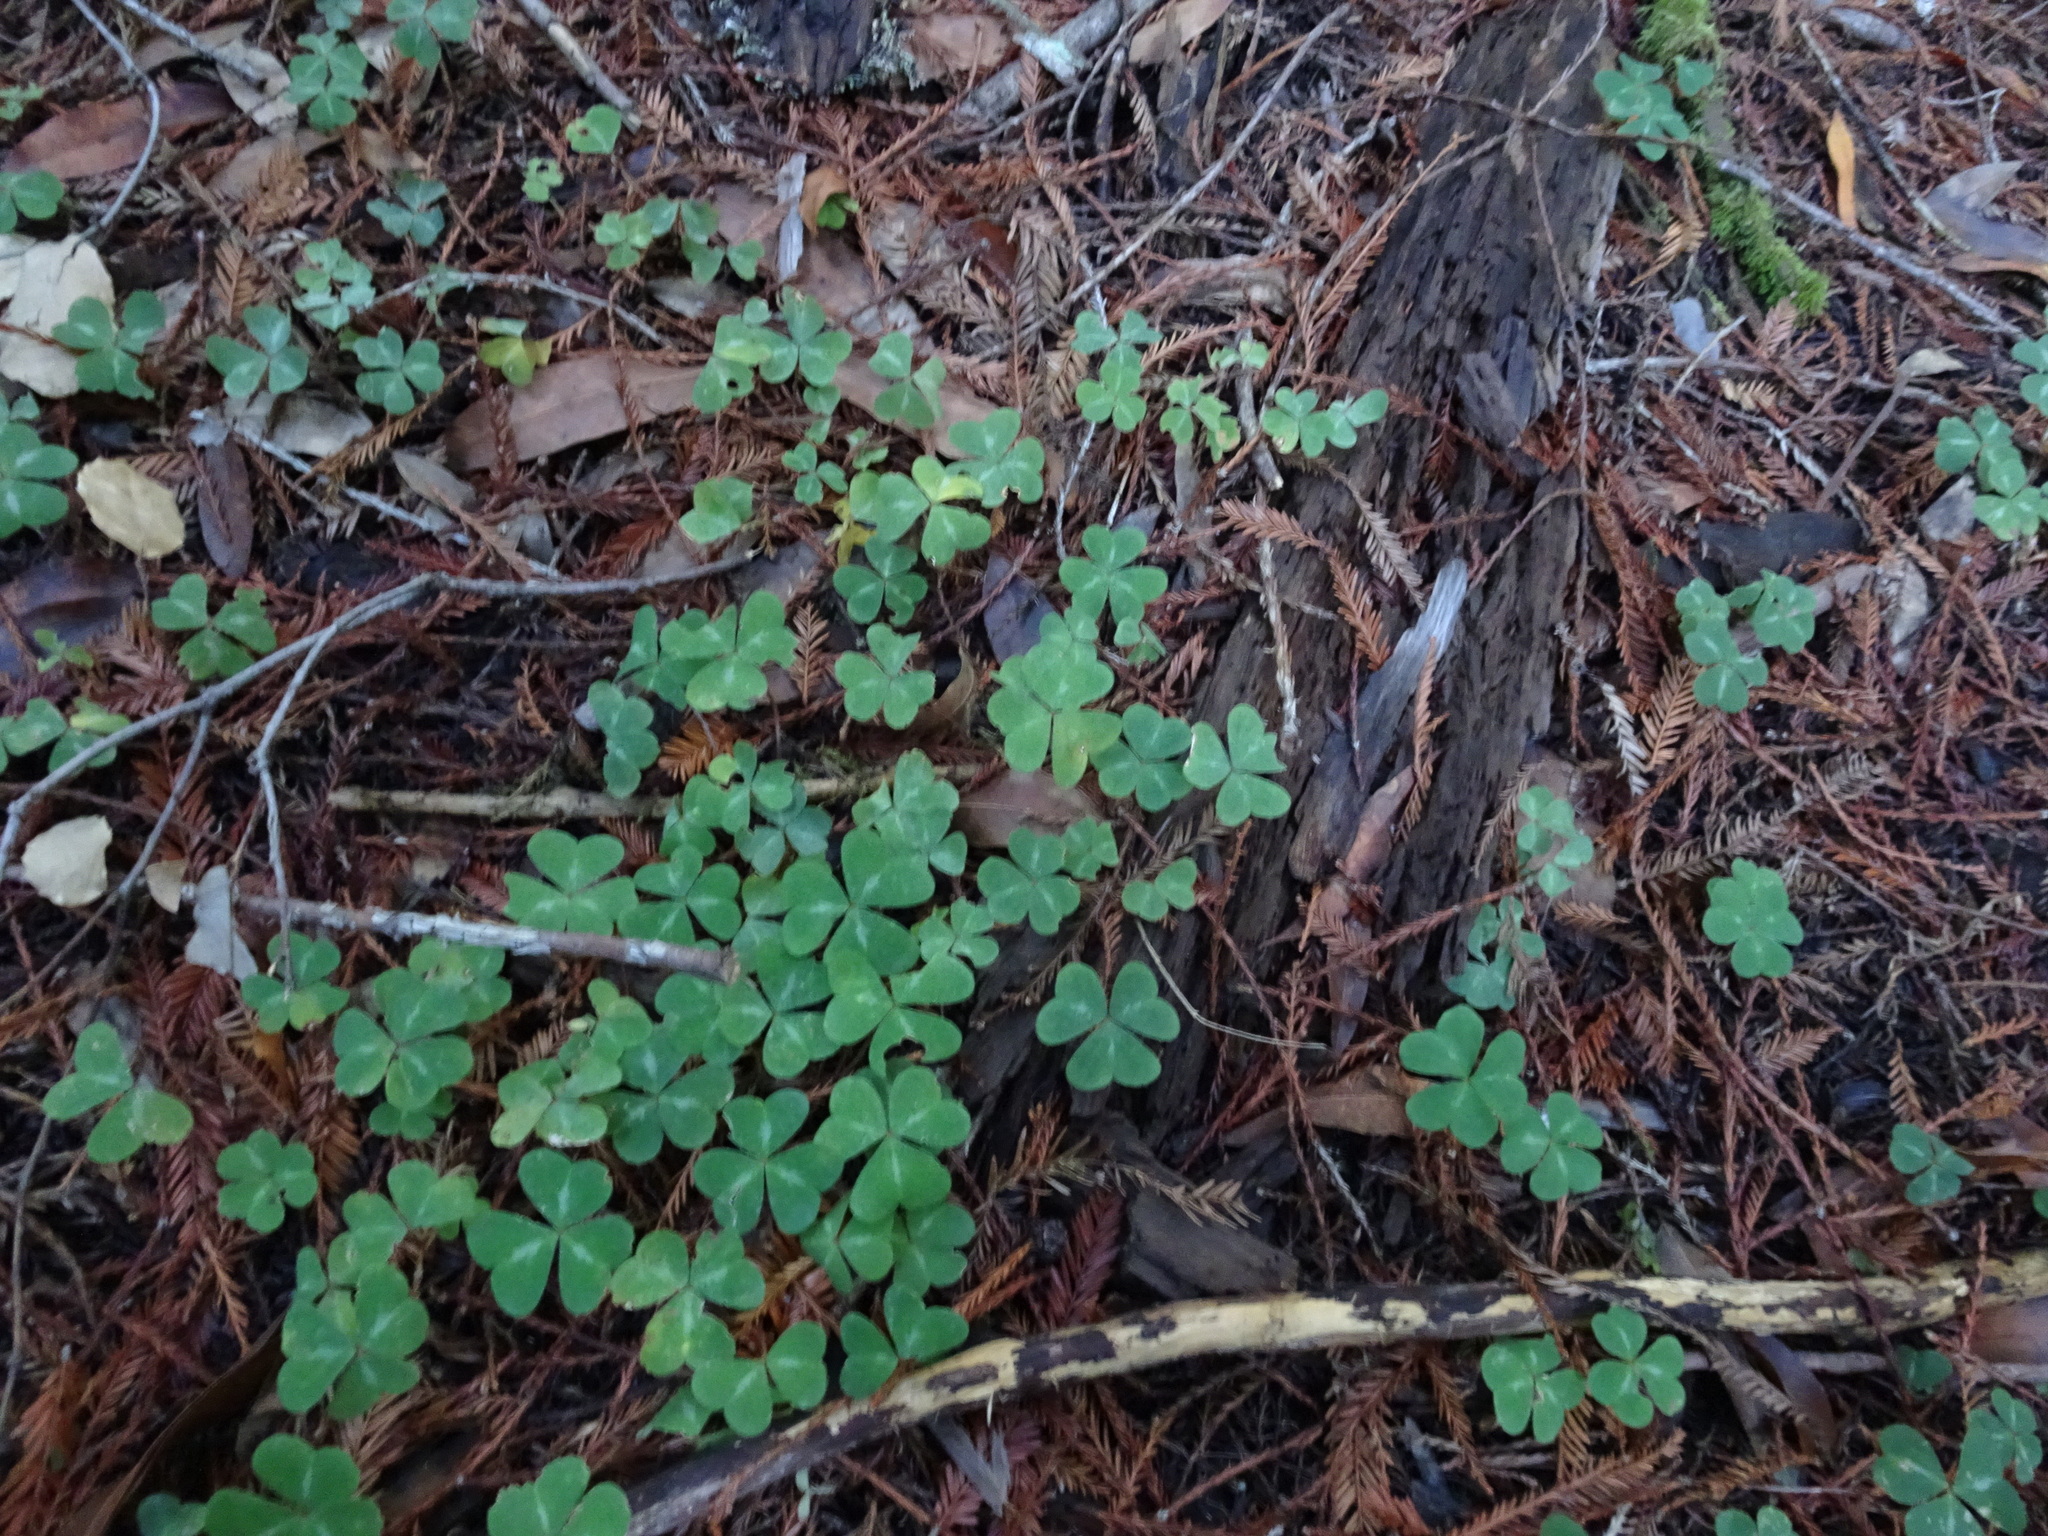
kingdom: Plantae
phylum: Tracheophyta
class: Magnoliopsida
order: Oxalidales
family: Oxalidaceae
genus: Oxalis
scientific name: Oxalis oregana
